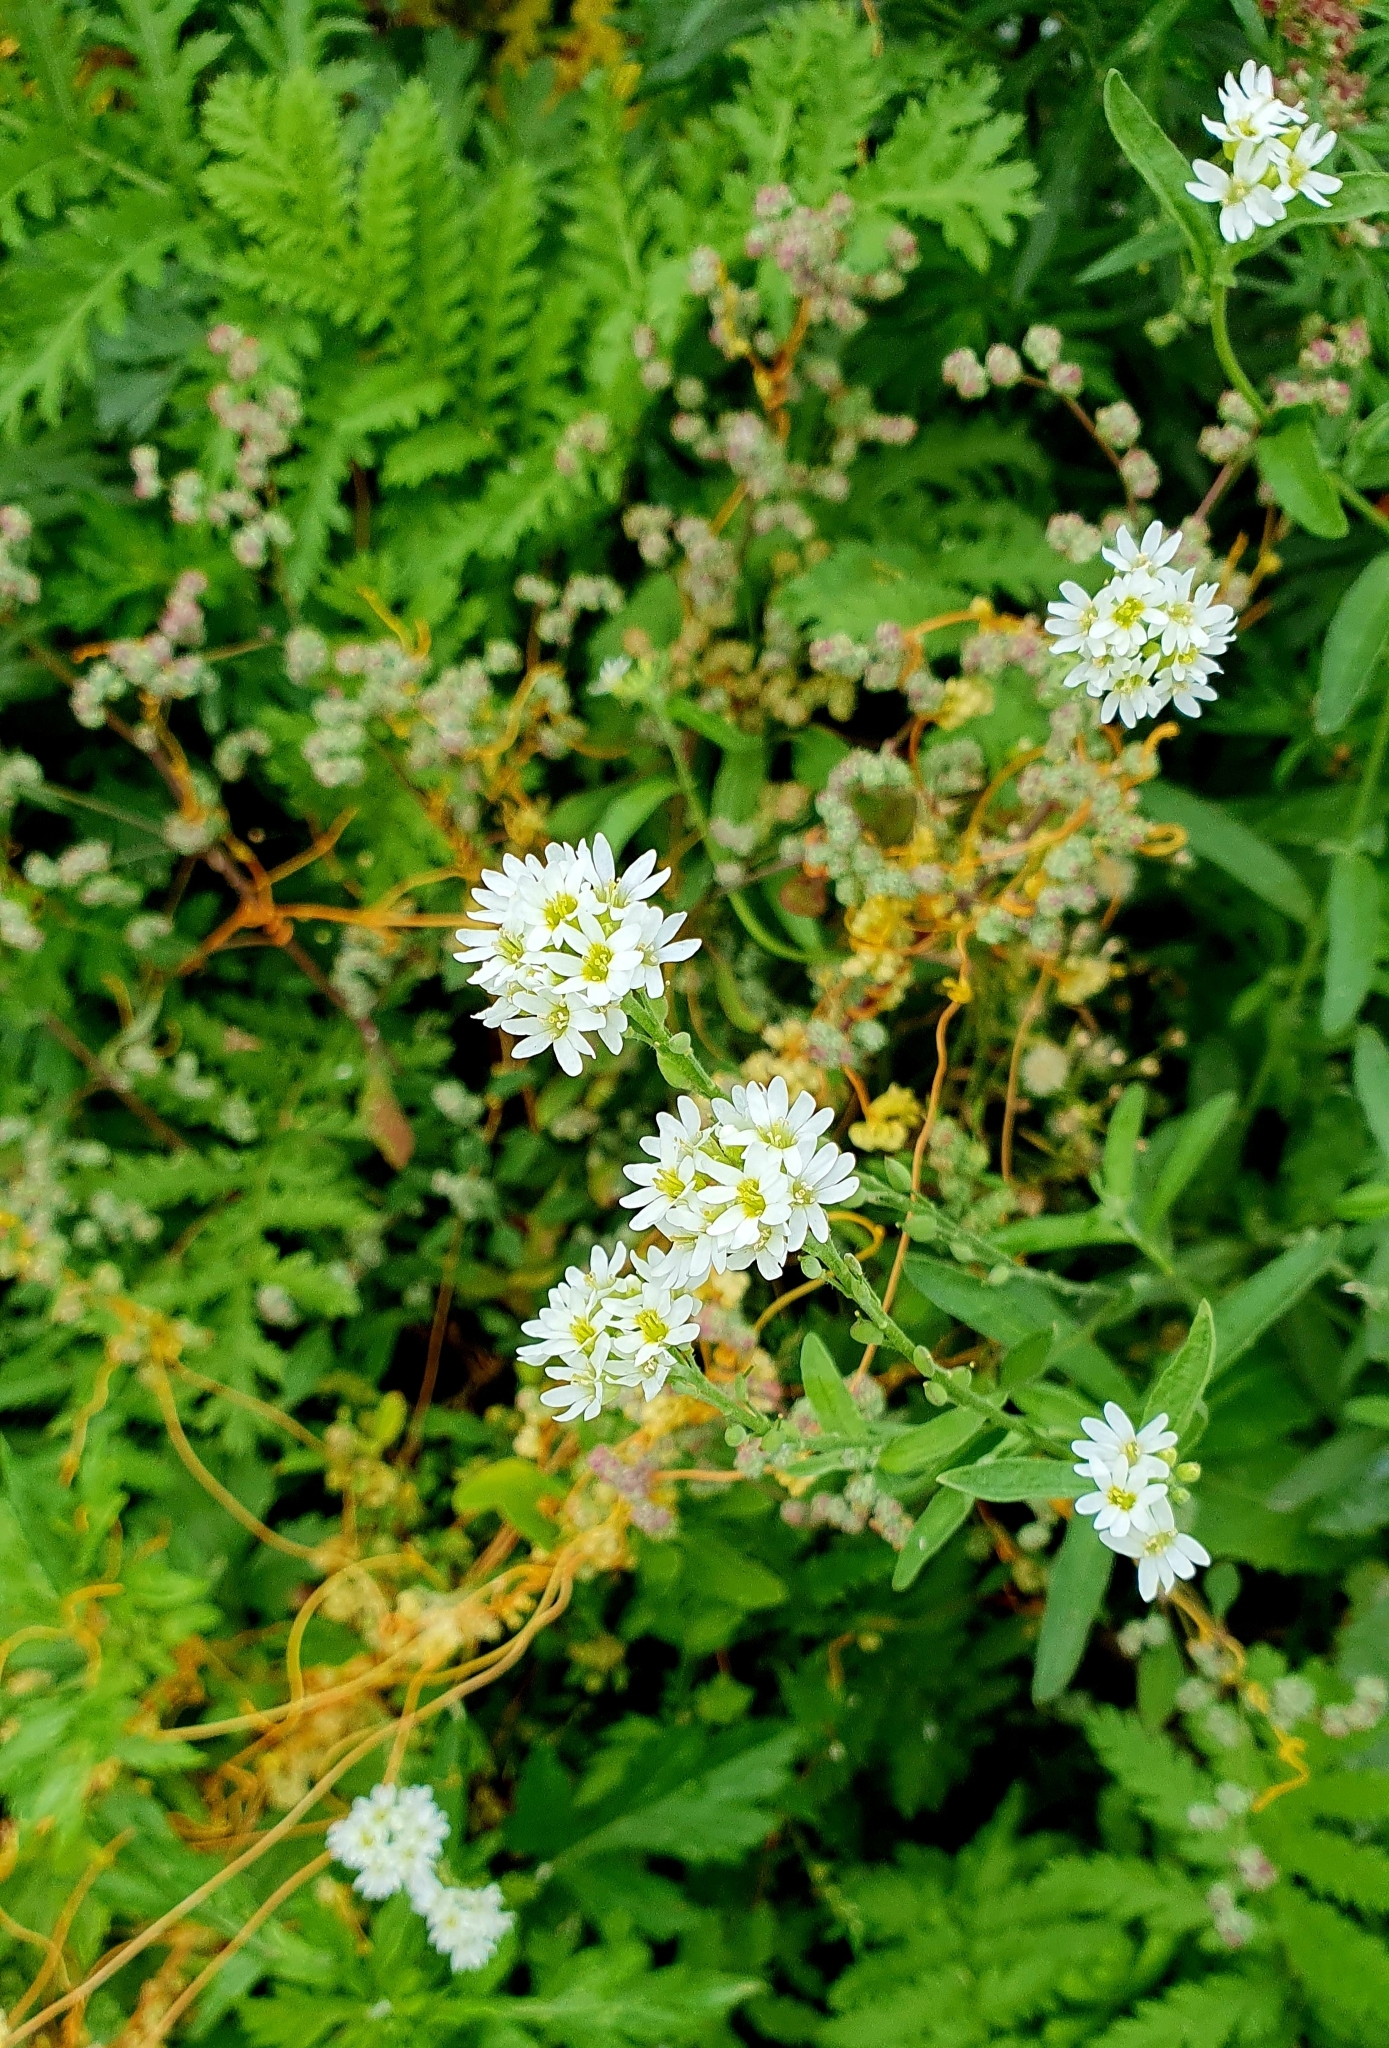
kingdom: Plantae
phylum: Tracheophyta
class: Magnoliopsida
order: Brassicales
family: Brassicaceae
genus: Berteroa
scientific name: Berteroa incana
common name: Hoary alison
